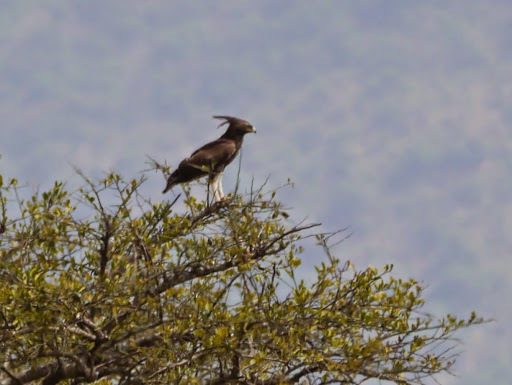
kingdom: Animalia
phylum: Chordata
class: Aves
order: Accipitriformes
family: Accipitridae
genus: Lophaetus
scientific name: Lophaetus occipitalis
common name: Long-crested eagle
